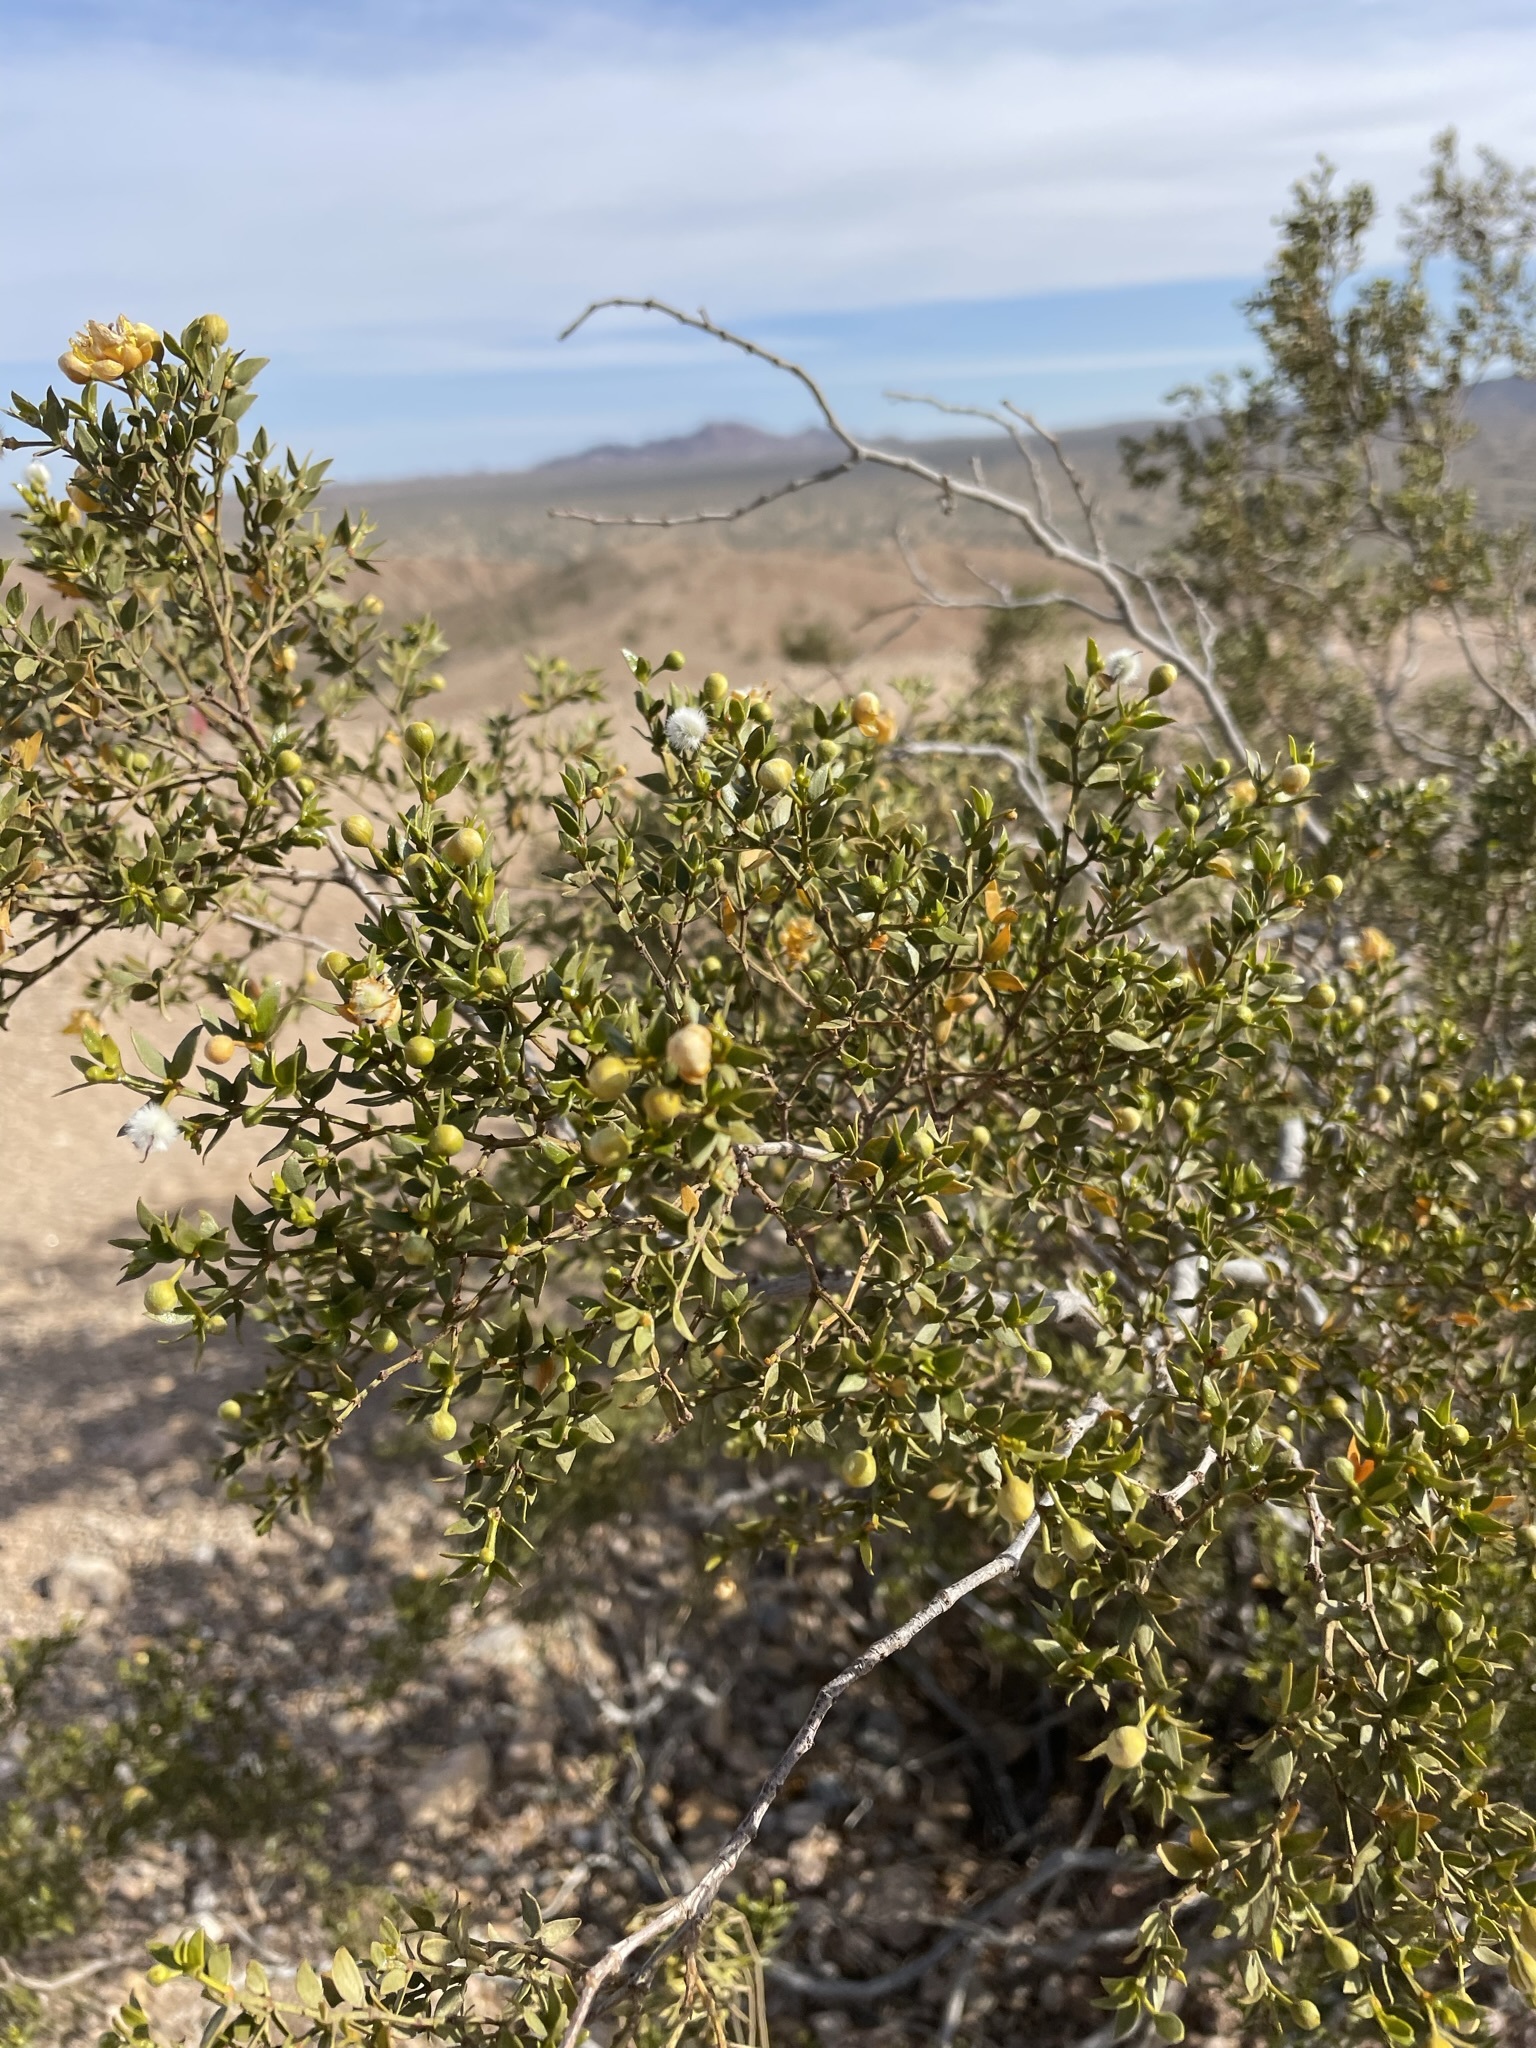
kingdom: Plantae
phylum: Tracheophyta
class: Magnoliopsida
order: Zygophyllales
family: Zygophyllaceae
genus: Larrea
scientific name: Larrea tridentata
